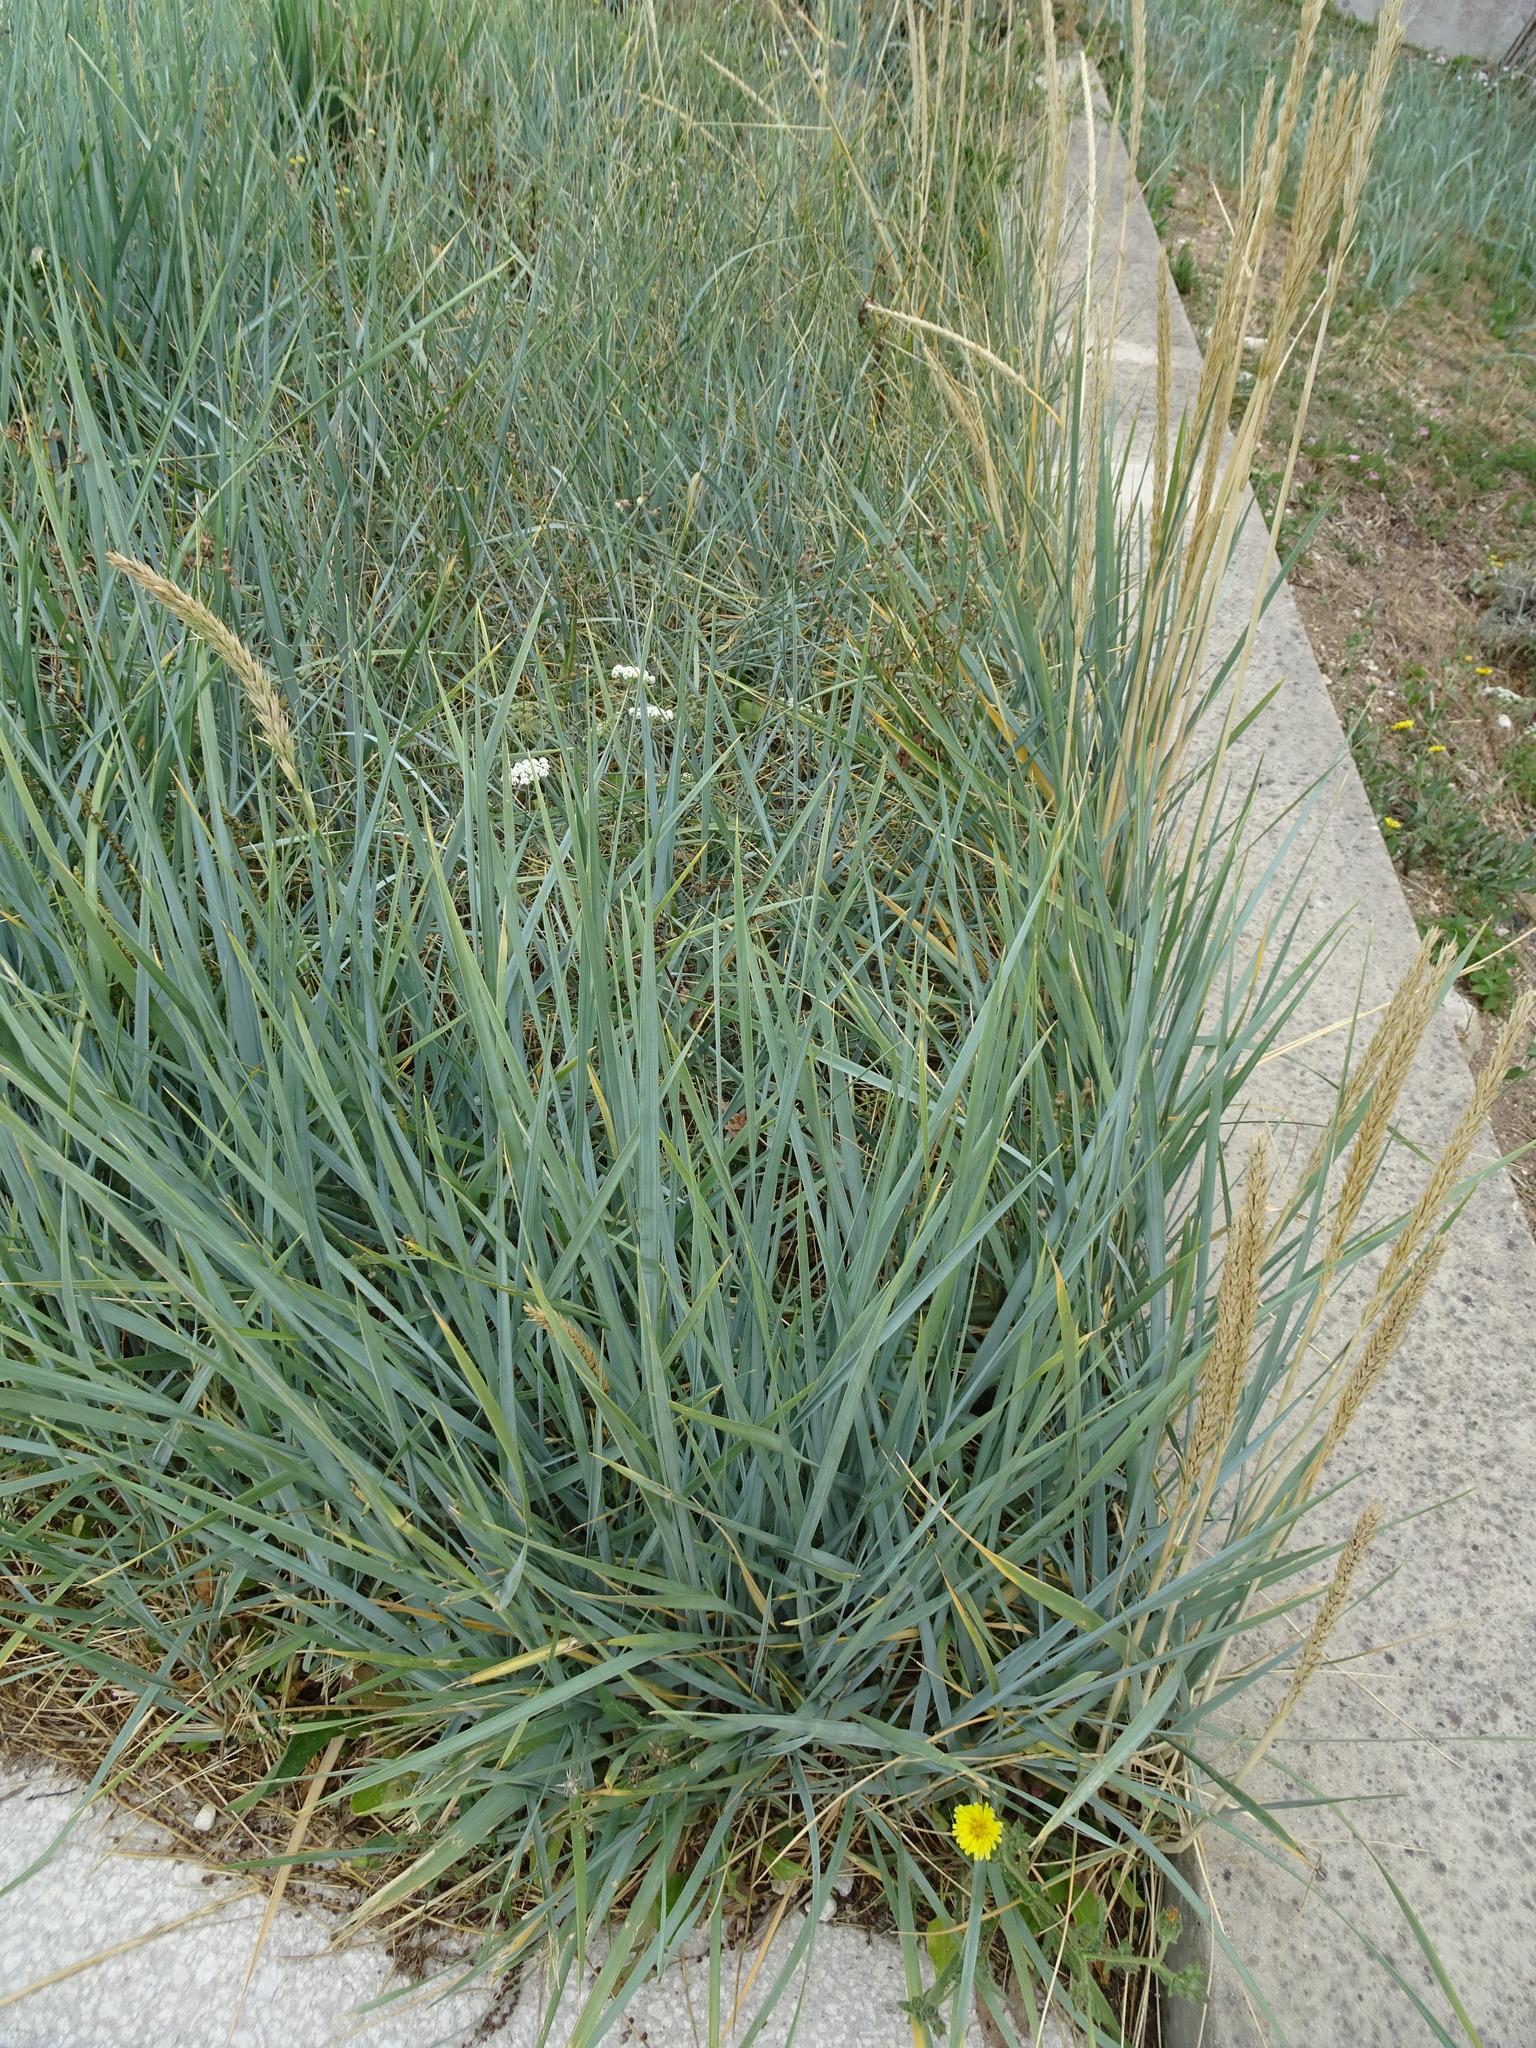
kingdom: Plantae
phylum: Tracheophyta
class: Liliopsida
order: Poales
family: Poaceae
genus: Leymus
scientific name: Leymus arenarius
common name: Lyme-grass
